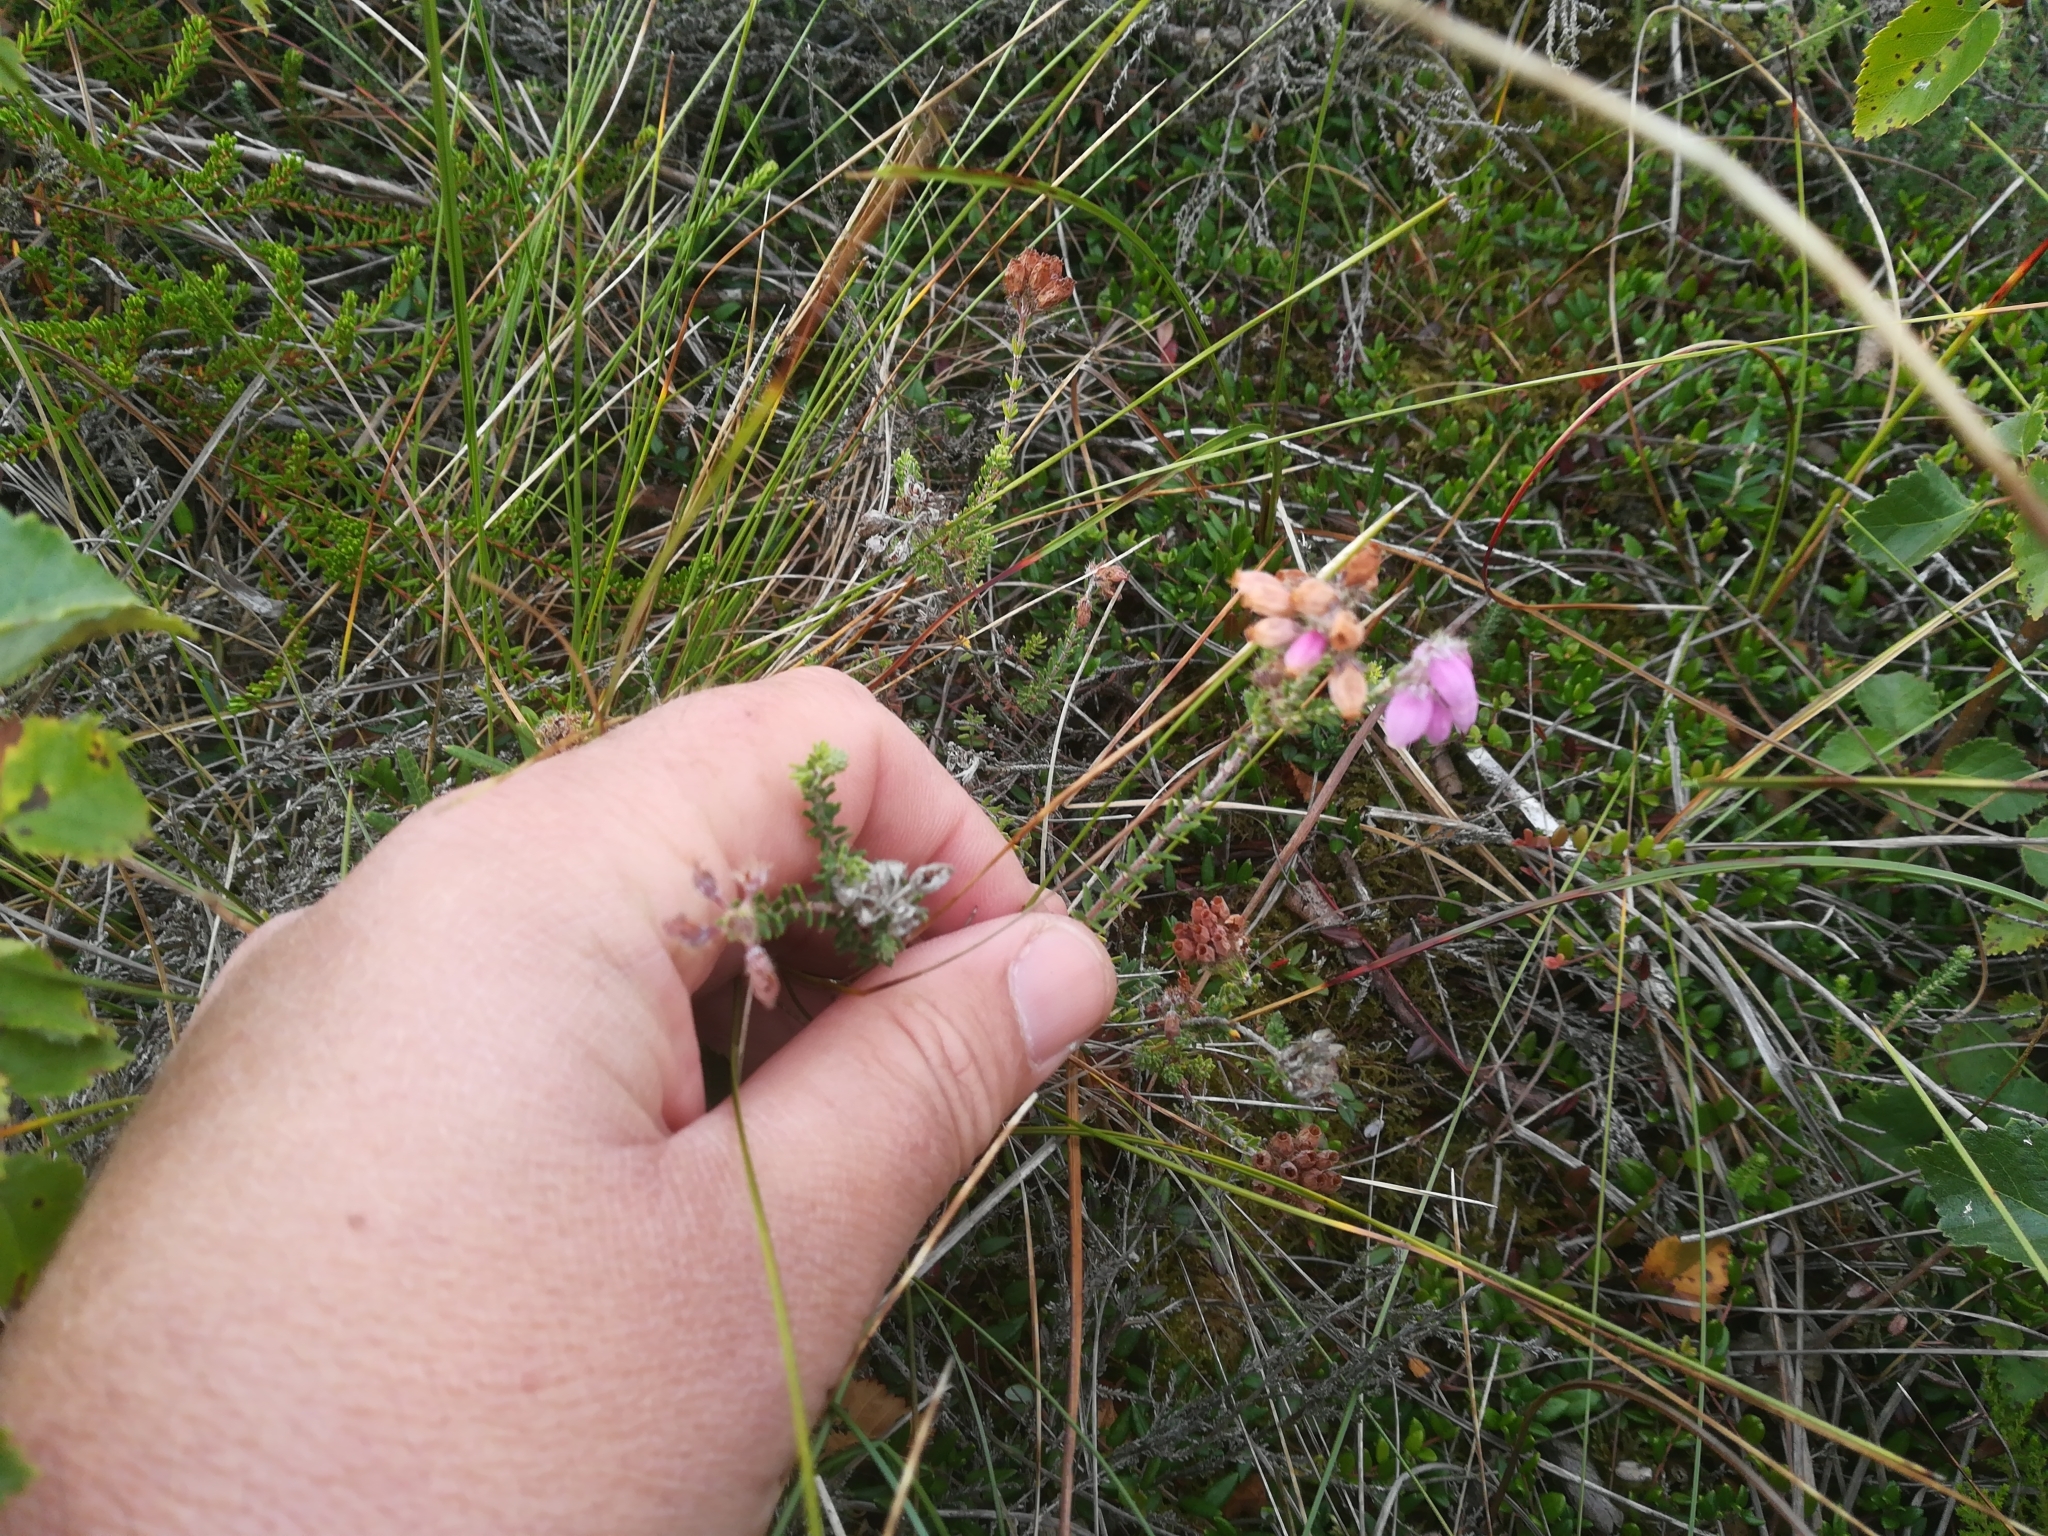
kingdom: Plantae
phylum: Tracheophyta
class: Magnoliopsida
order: Ericales
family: Ericaceae
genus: Erica
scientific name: Erica tetralix
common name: Cross-leaved heath
